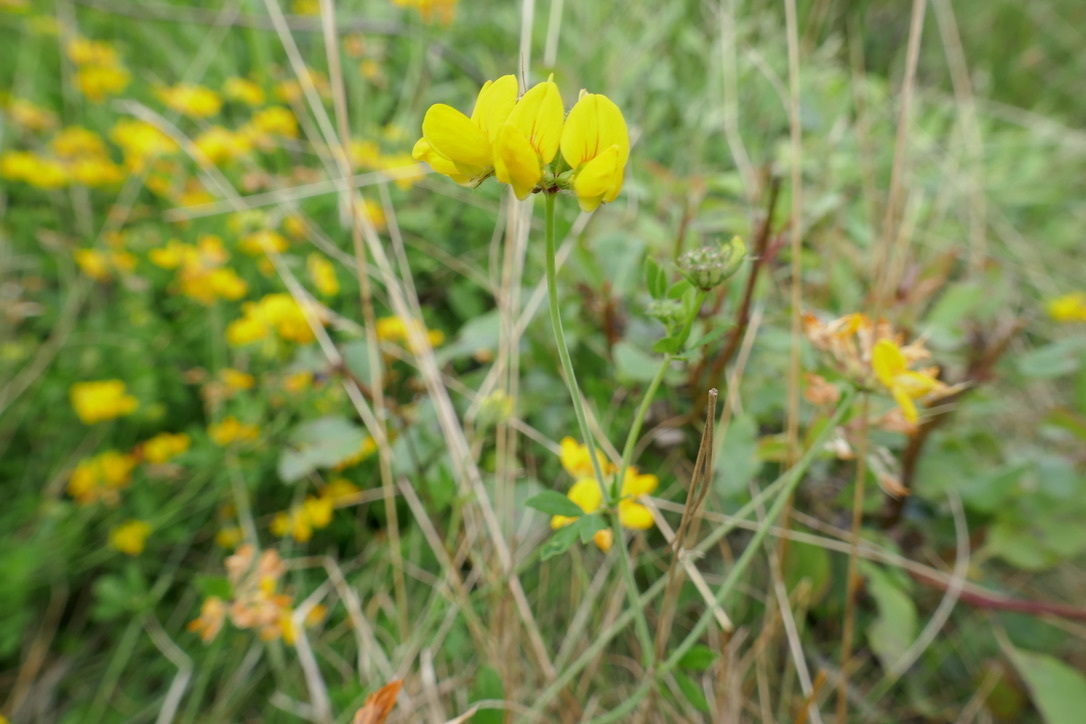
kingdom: Plantae
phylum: Tracheophyta
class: Magnoliopsida
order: Fabales
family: Fabaceae
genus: Lotus
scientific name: Lotus pedunculatus
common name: Greater birdsfoot-trefoil
